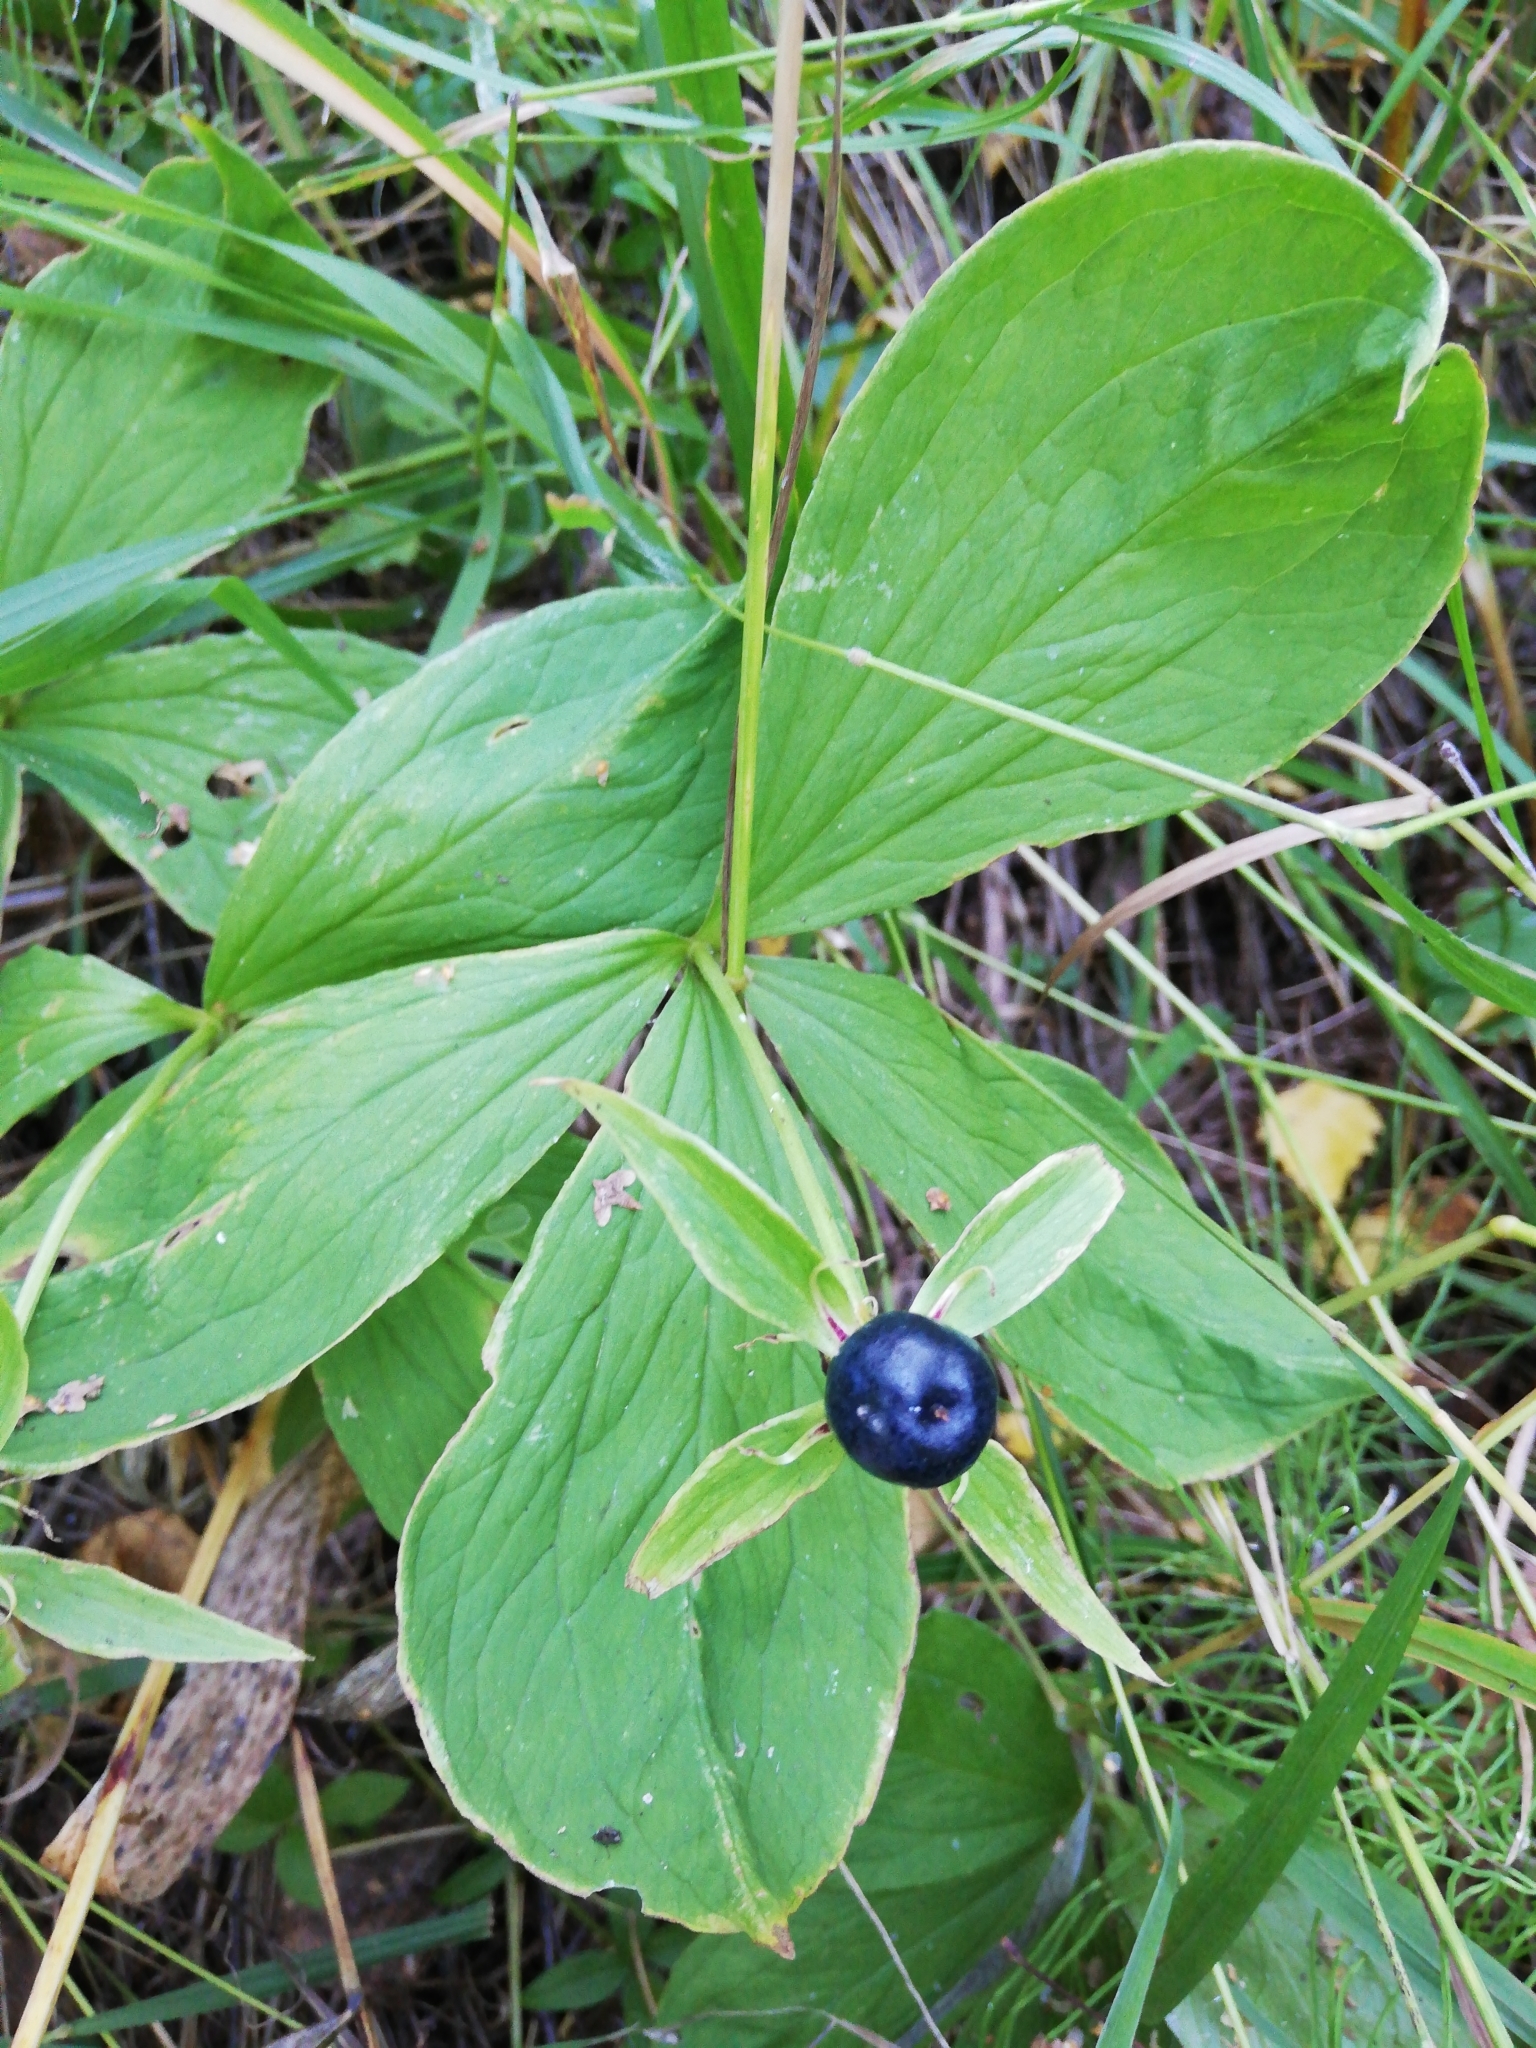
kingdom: Plantae
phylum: Tracheophyta
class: Liliopsida
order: Liliales
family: Melanthiaceae
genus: Paris
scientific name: Paris quadrifolia
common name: Herb-paris
